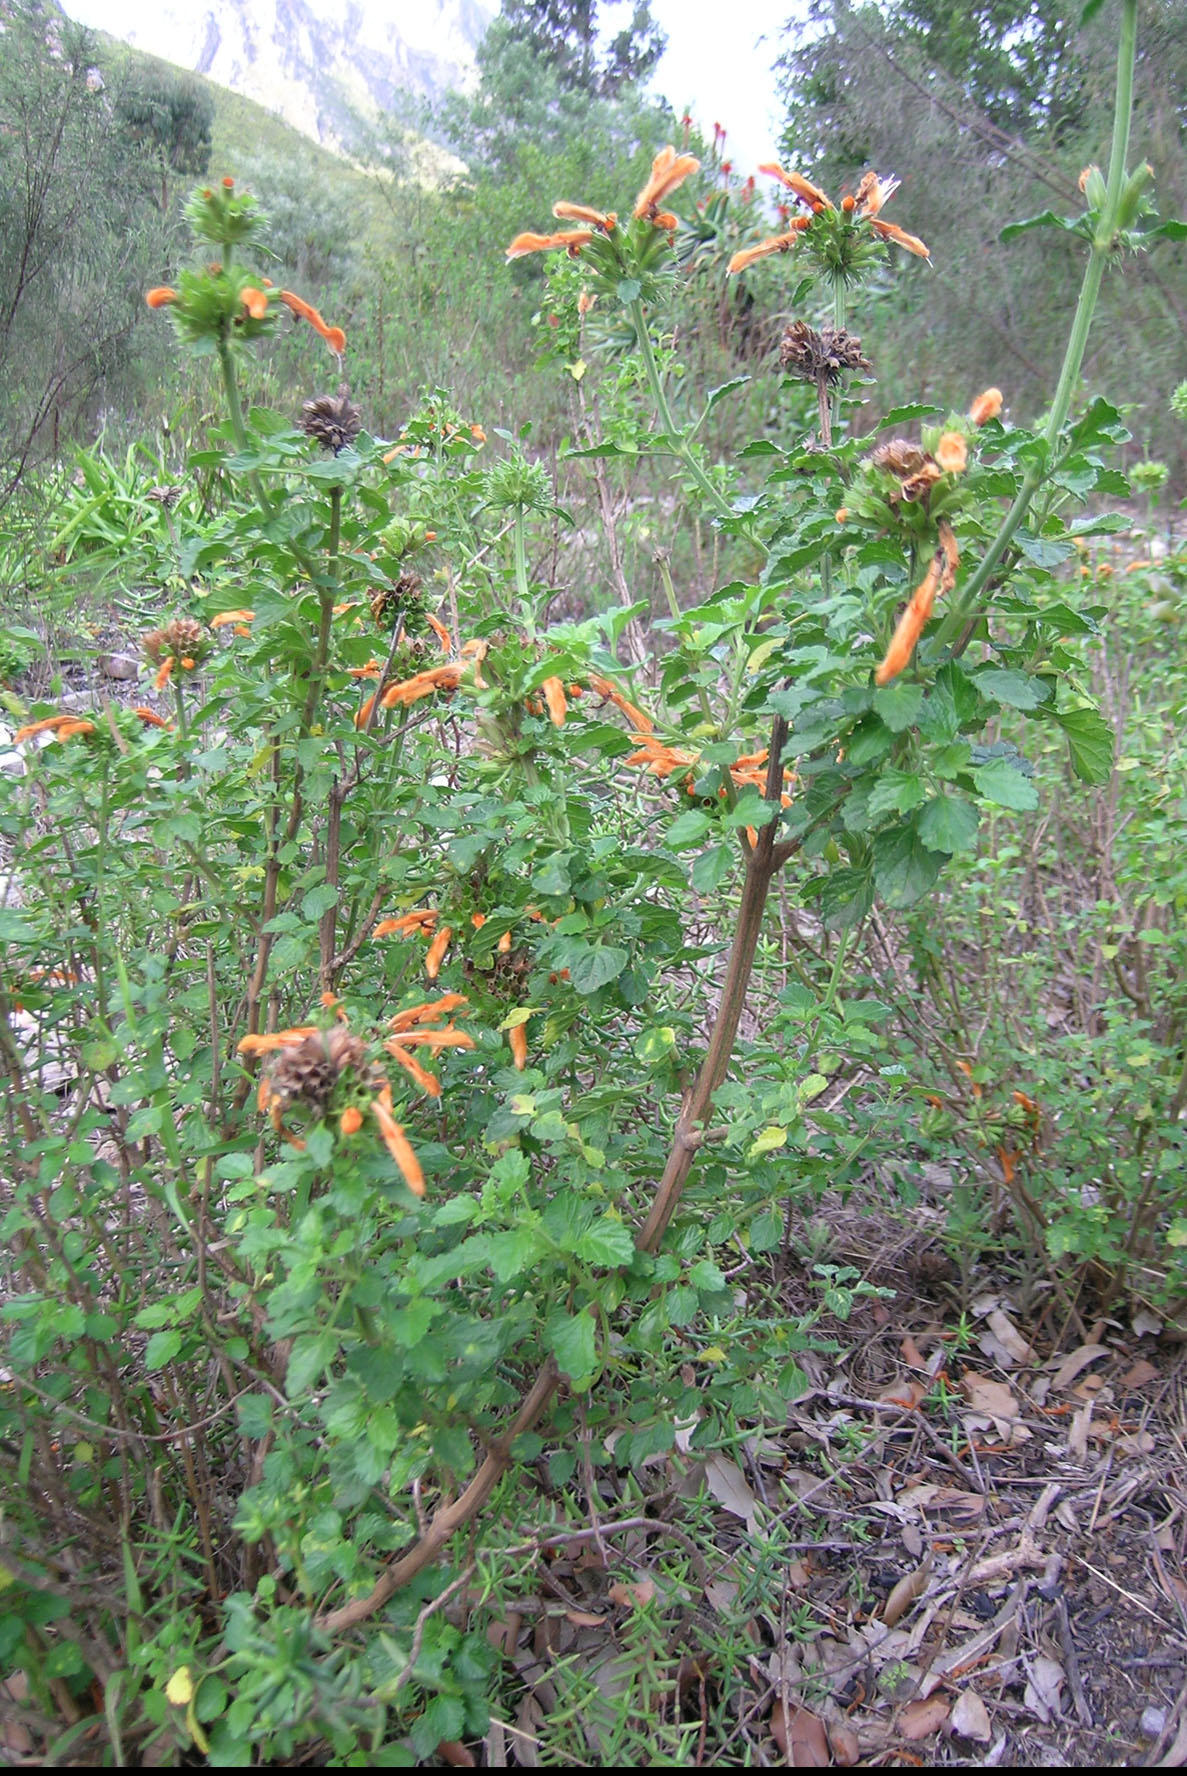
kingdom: Plantae
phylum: Tracheophyta
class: Magnoliopsida
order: Lamiales
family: Lamiaceae
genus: Leonotis
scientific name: Leonotis ocymifolia
